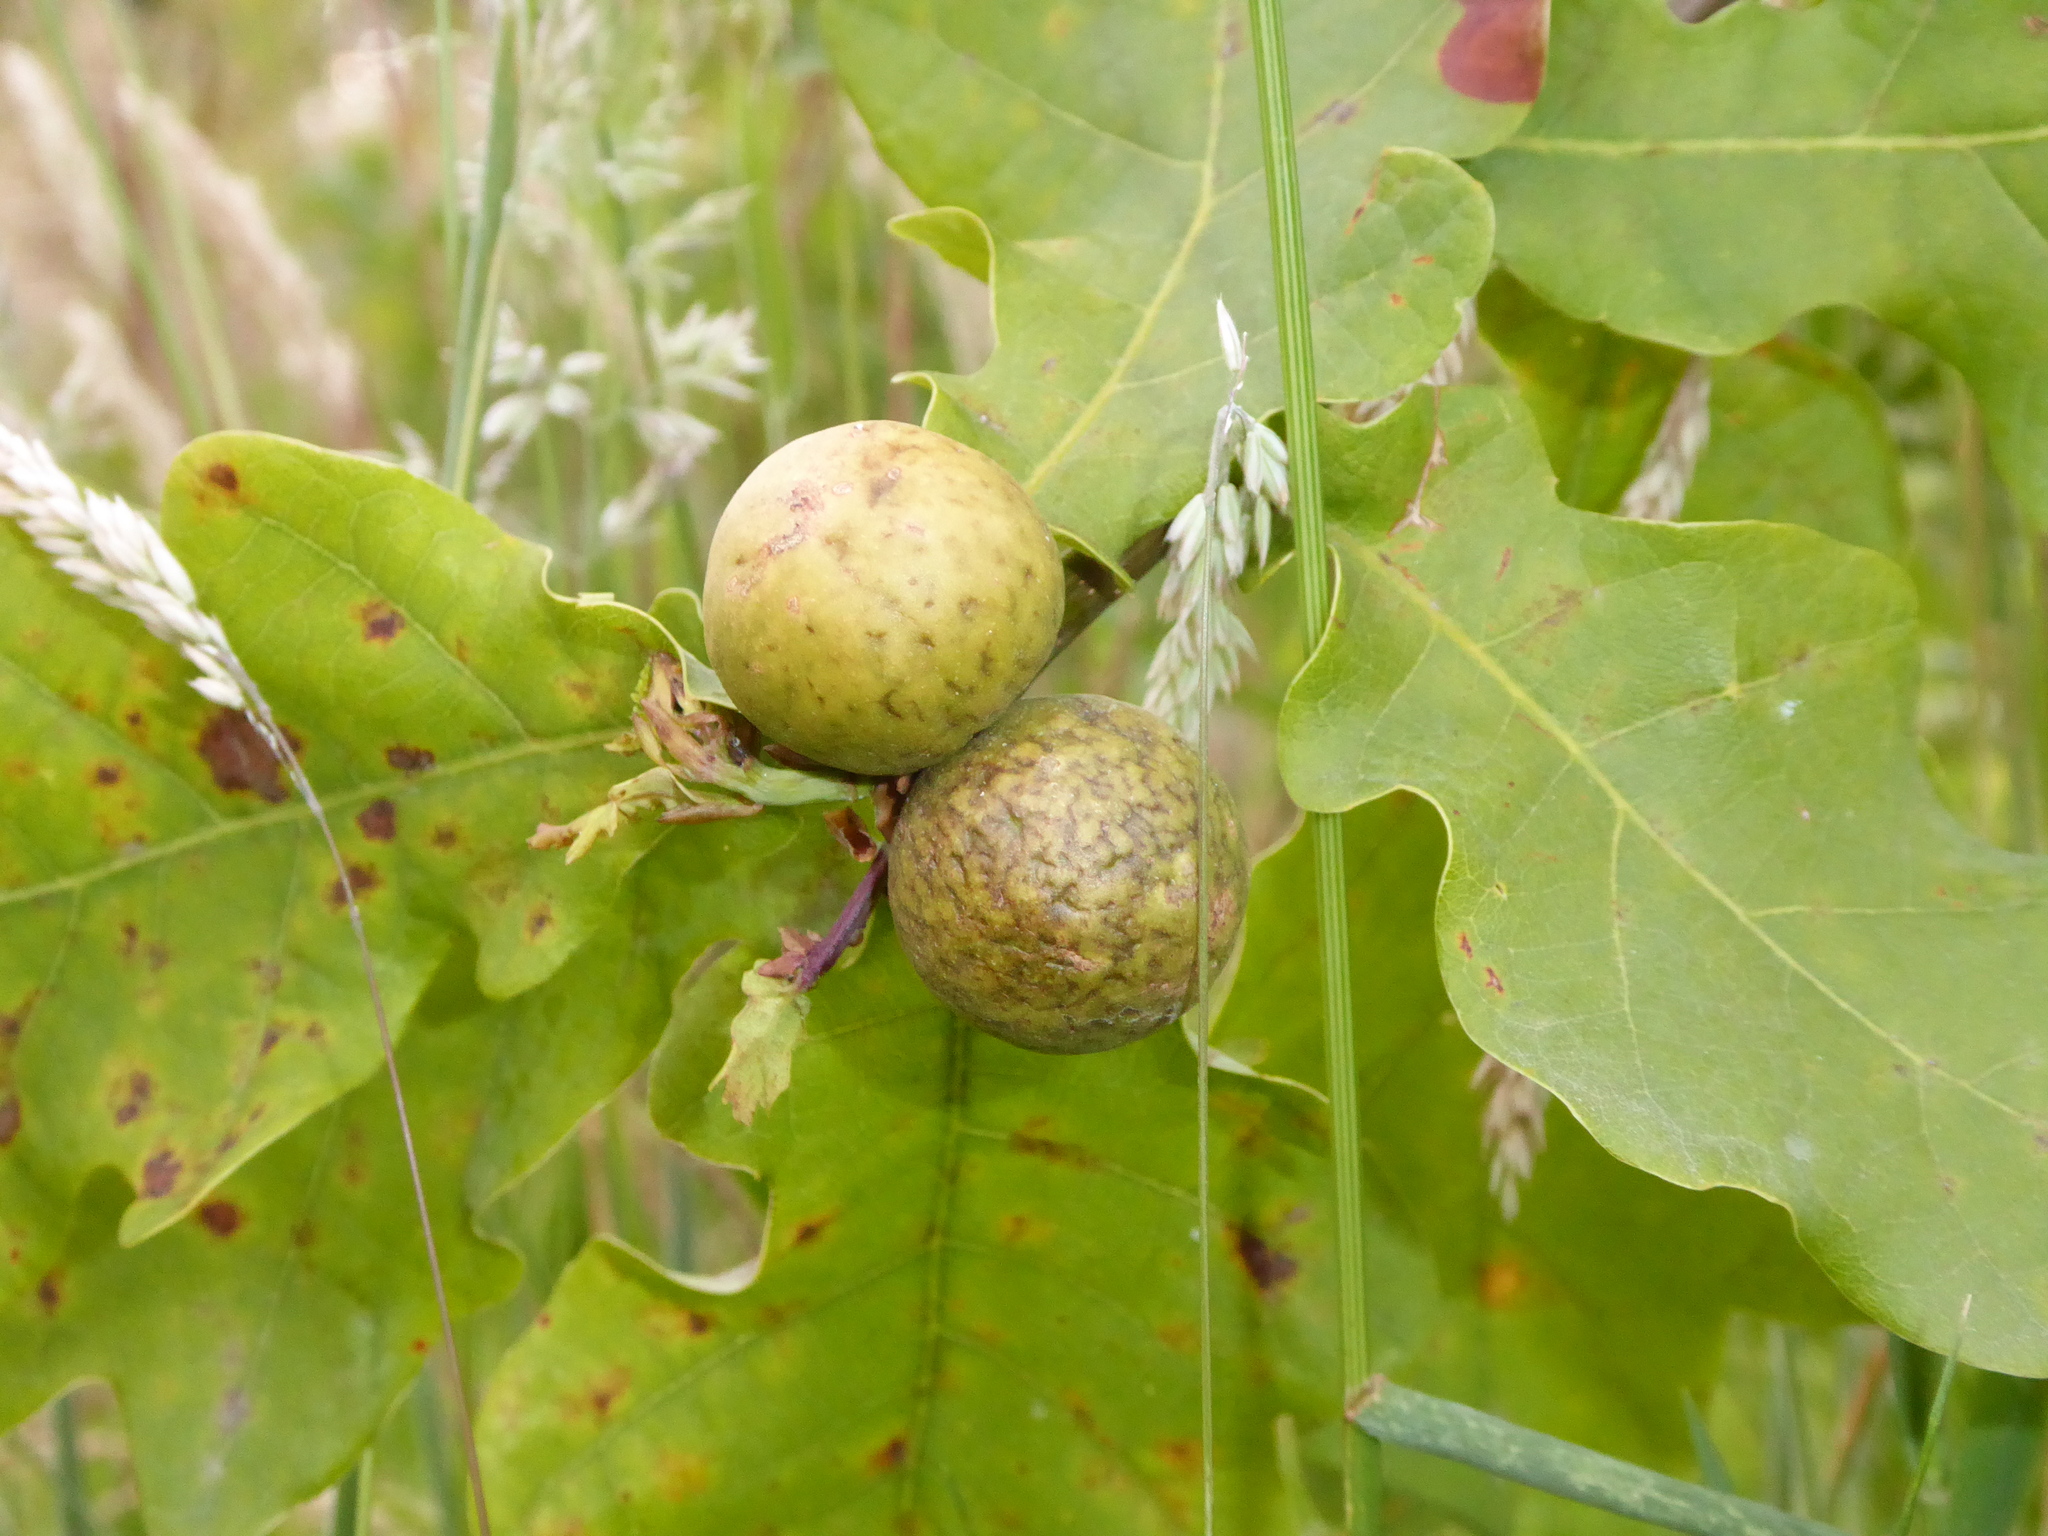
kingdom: Animalia
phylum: Arthropoda
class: Insecta
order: Hymenoptera
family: Cynipidae
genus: Andricus
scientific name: Andricus kollari
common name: Marble gall
